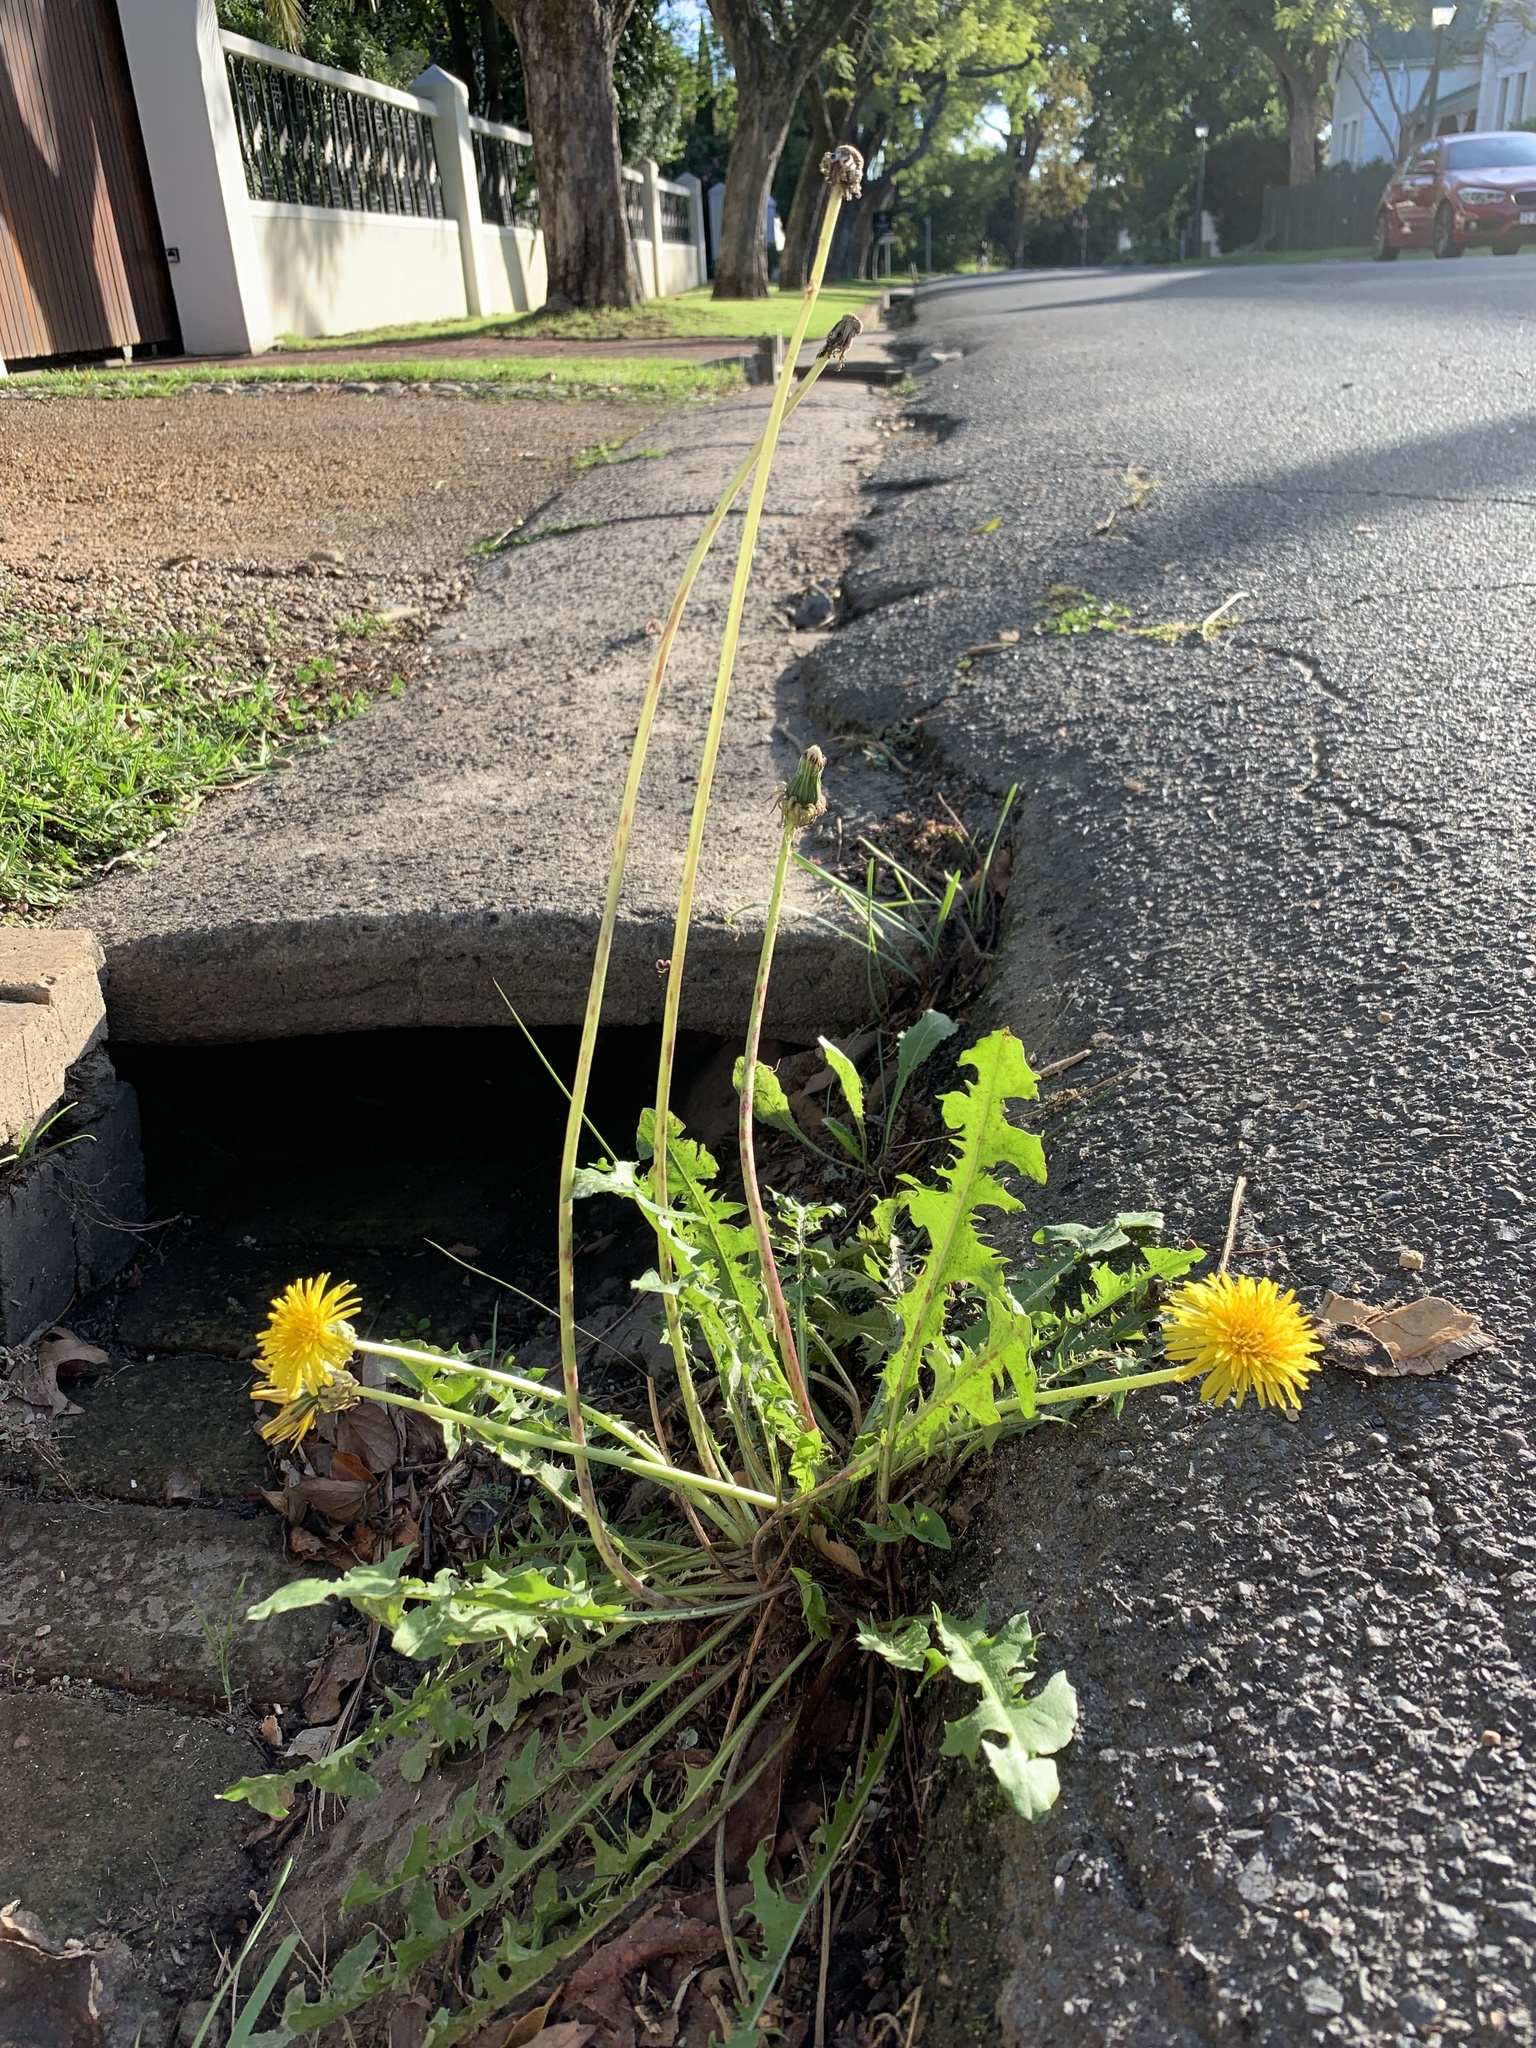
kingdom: Plantae
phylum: Tracheophyta
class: Magnoliopsida
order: Asterales
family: Asteraceae
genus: Taraxacum
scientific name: Taraxacum officinale
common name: Common dandelion
